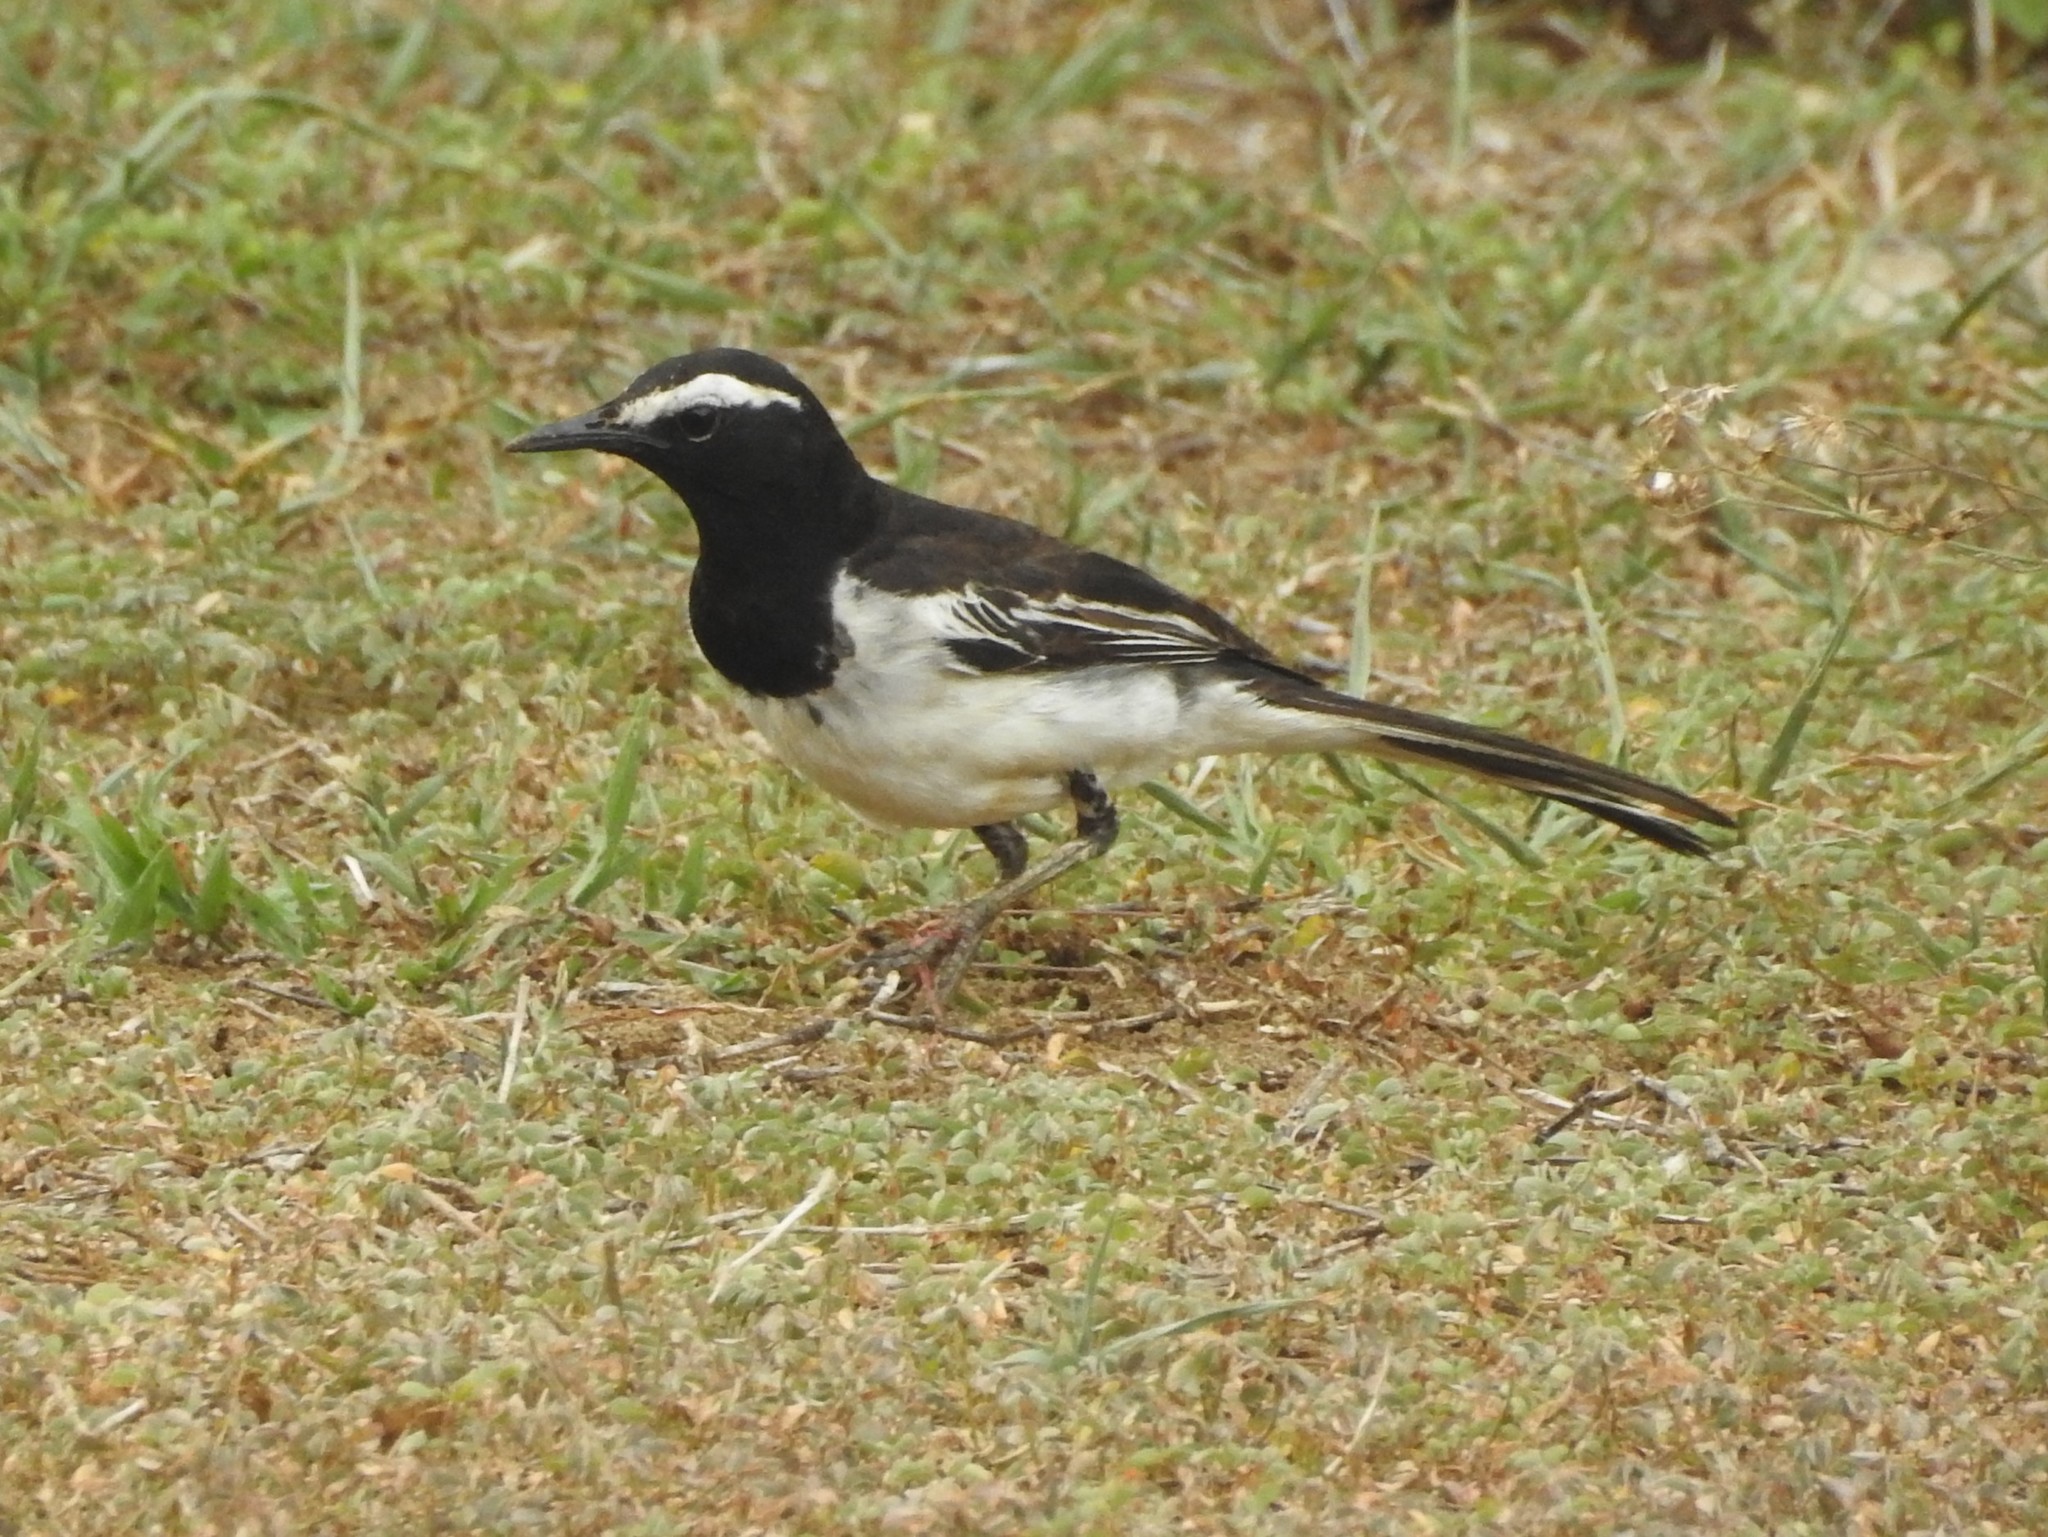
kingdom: Animalia
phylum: Chordata
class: Aves
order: Passeriformes
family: Motacillidae
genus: Motacilla
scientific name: Motacilla maderaspatensis
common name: White-browed wagtail
